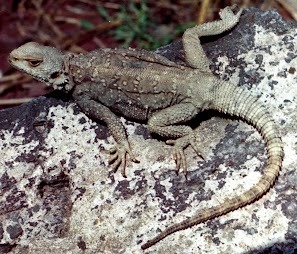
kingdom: Animalia
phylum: Chordata
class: Squamata
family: Agamidae
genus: Paralaudakia
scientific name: Paralaudakia caucasia
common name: Caucasian agama
